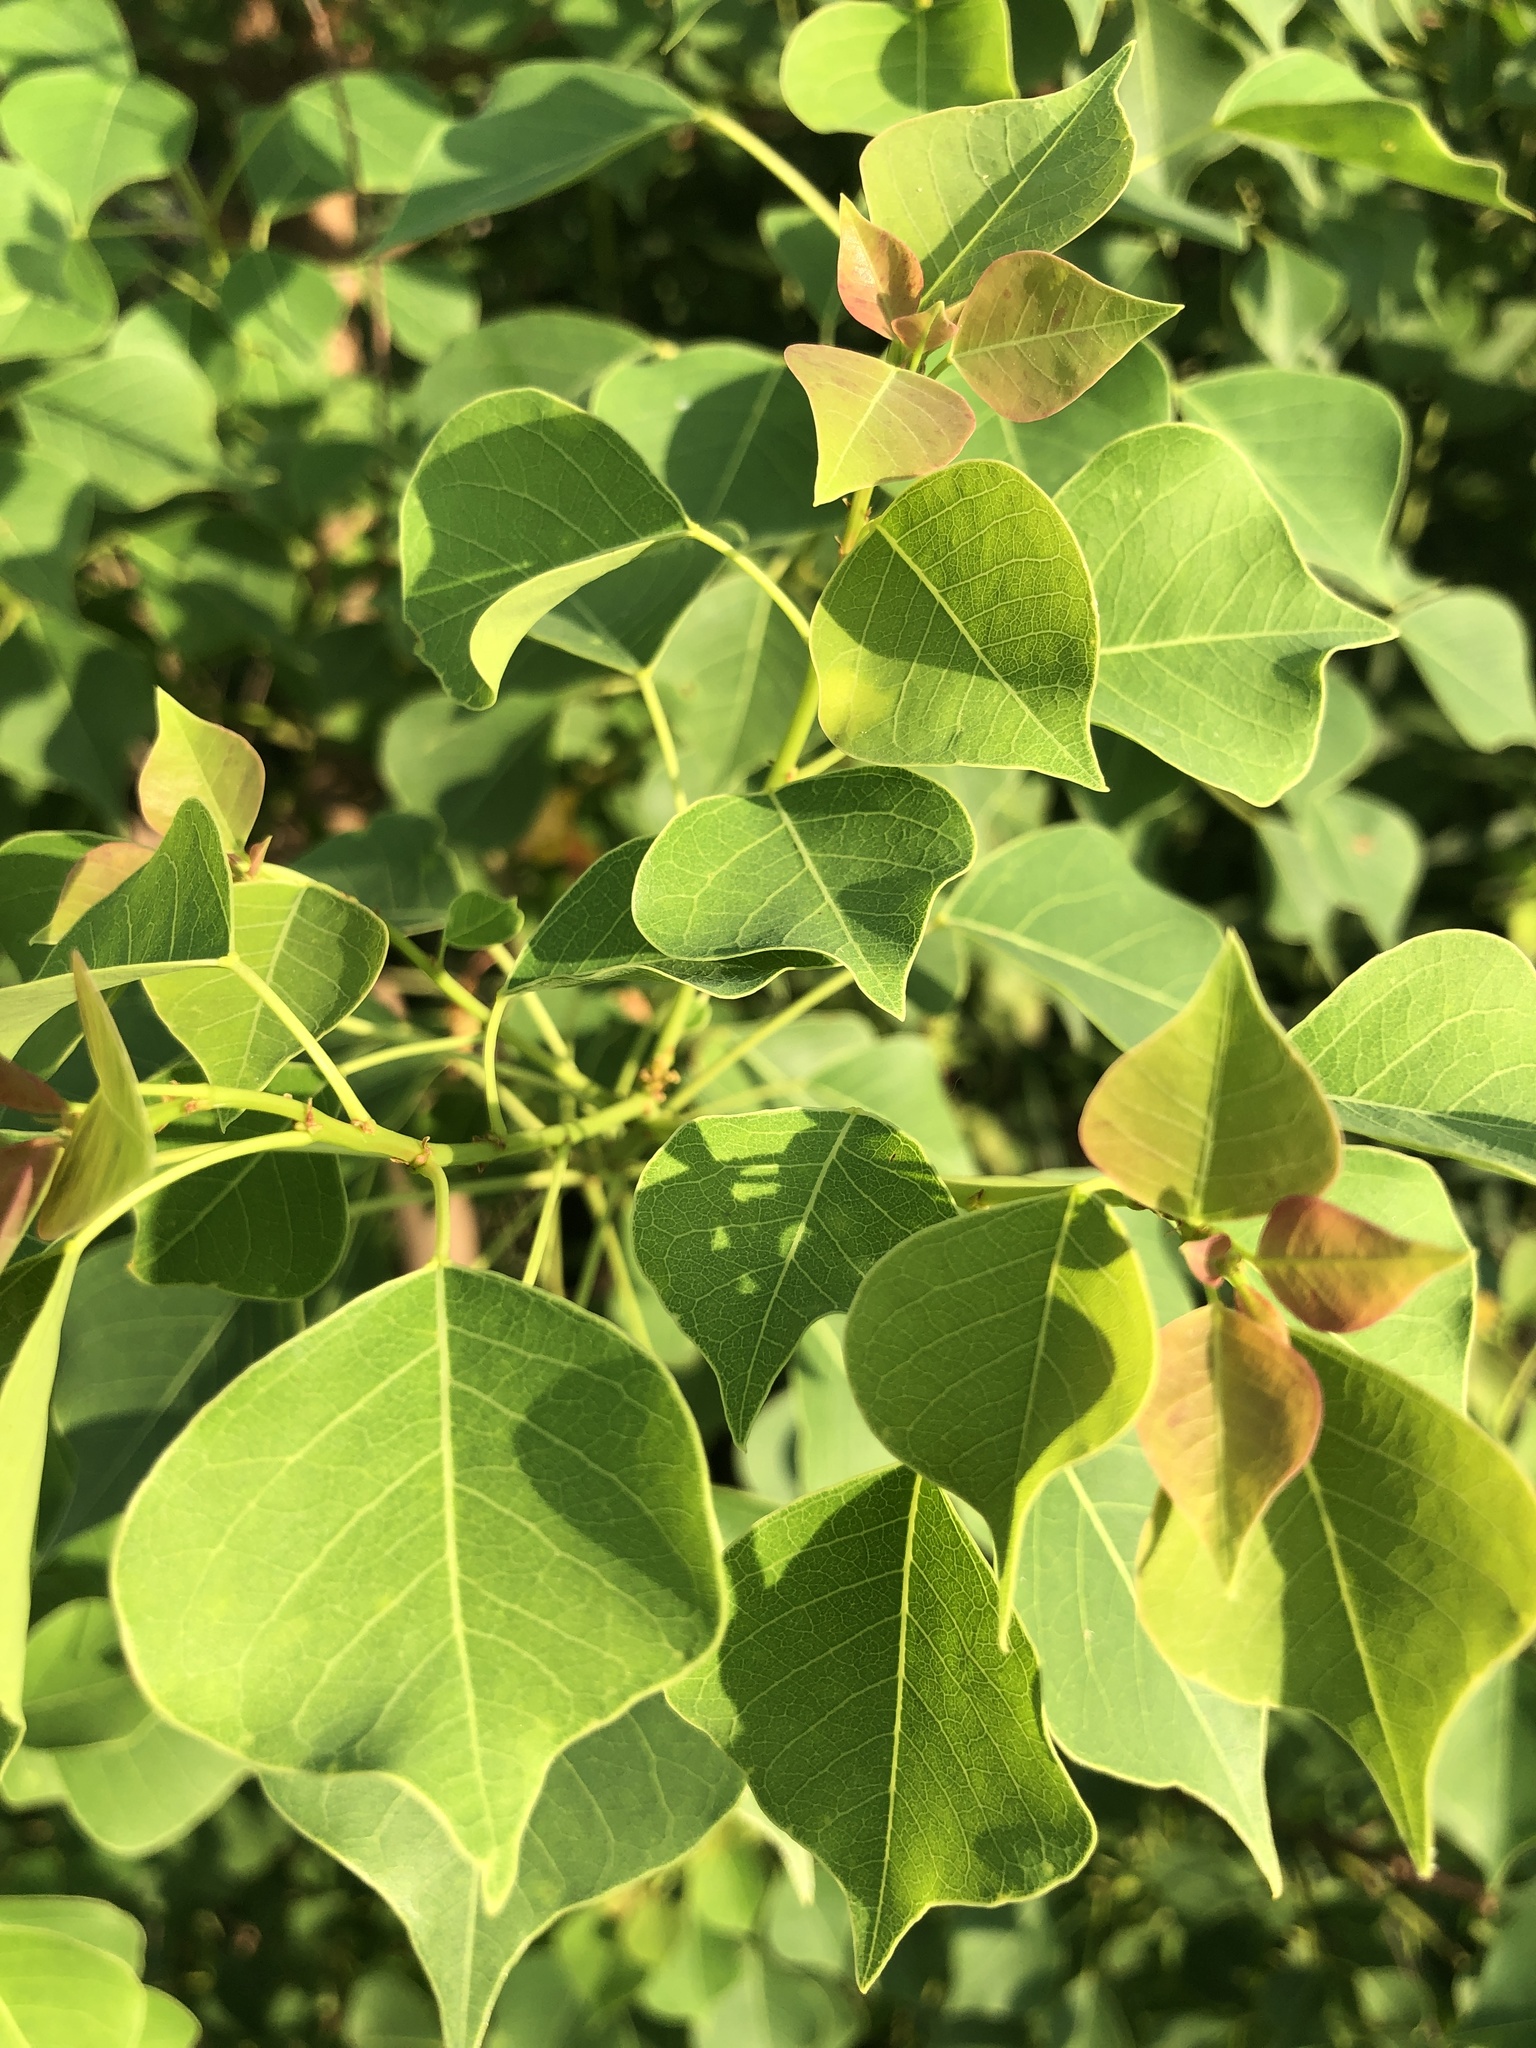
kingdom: Plantae
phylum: Tracheophyta
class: Magnoliopsida
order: Malpighiales
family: Euphorbiaceae
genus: Triadica
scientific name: Triadica sebifera
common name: Chinese tallow
